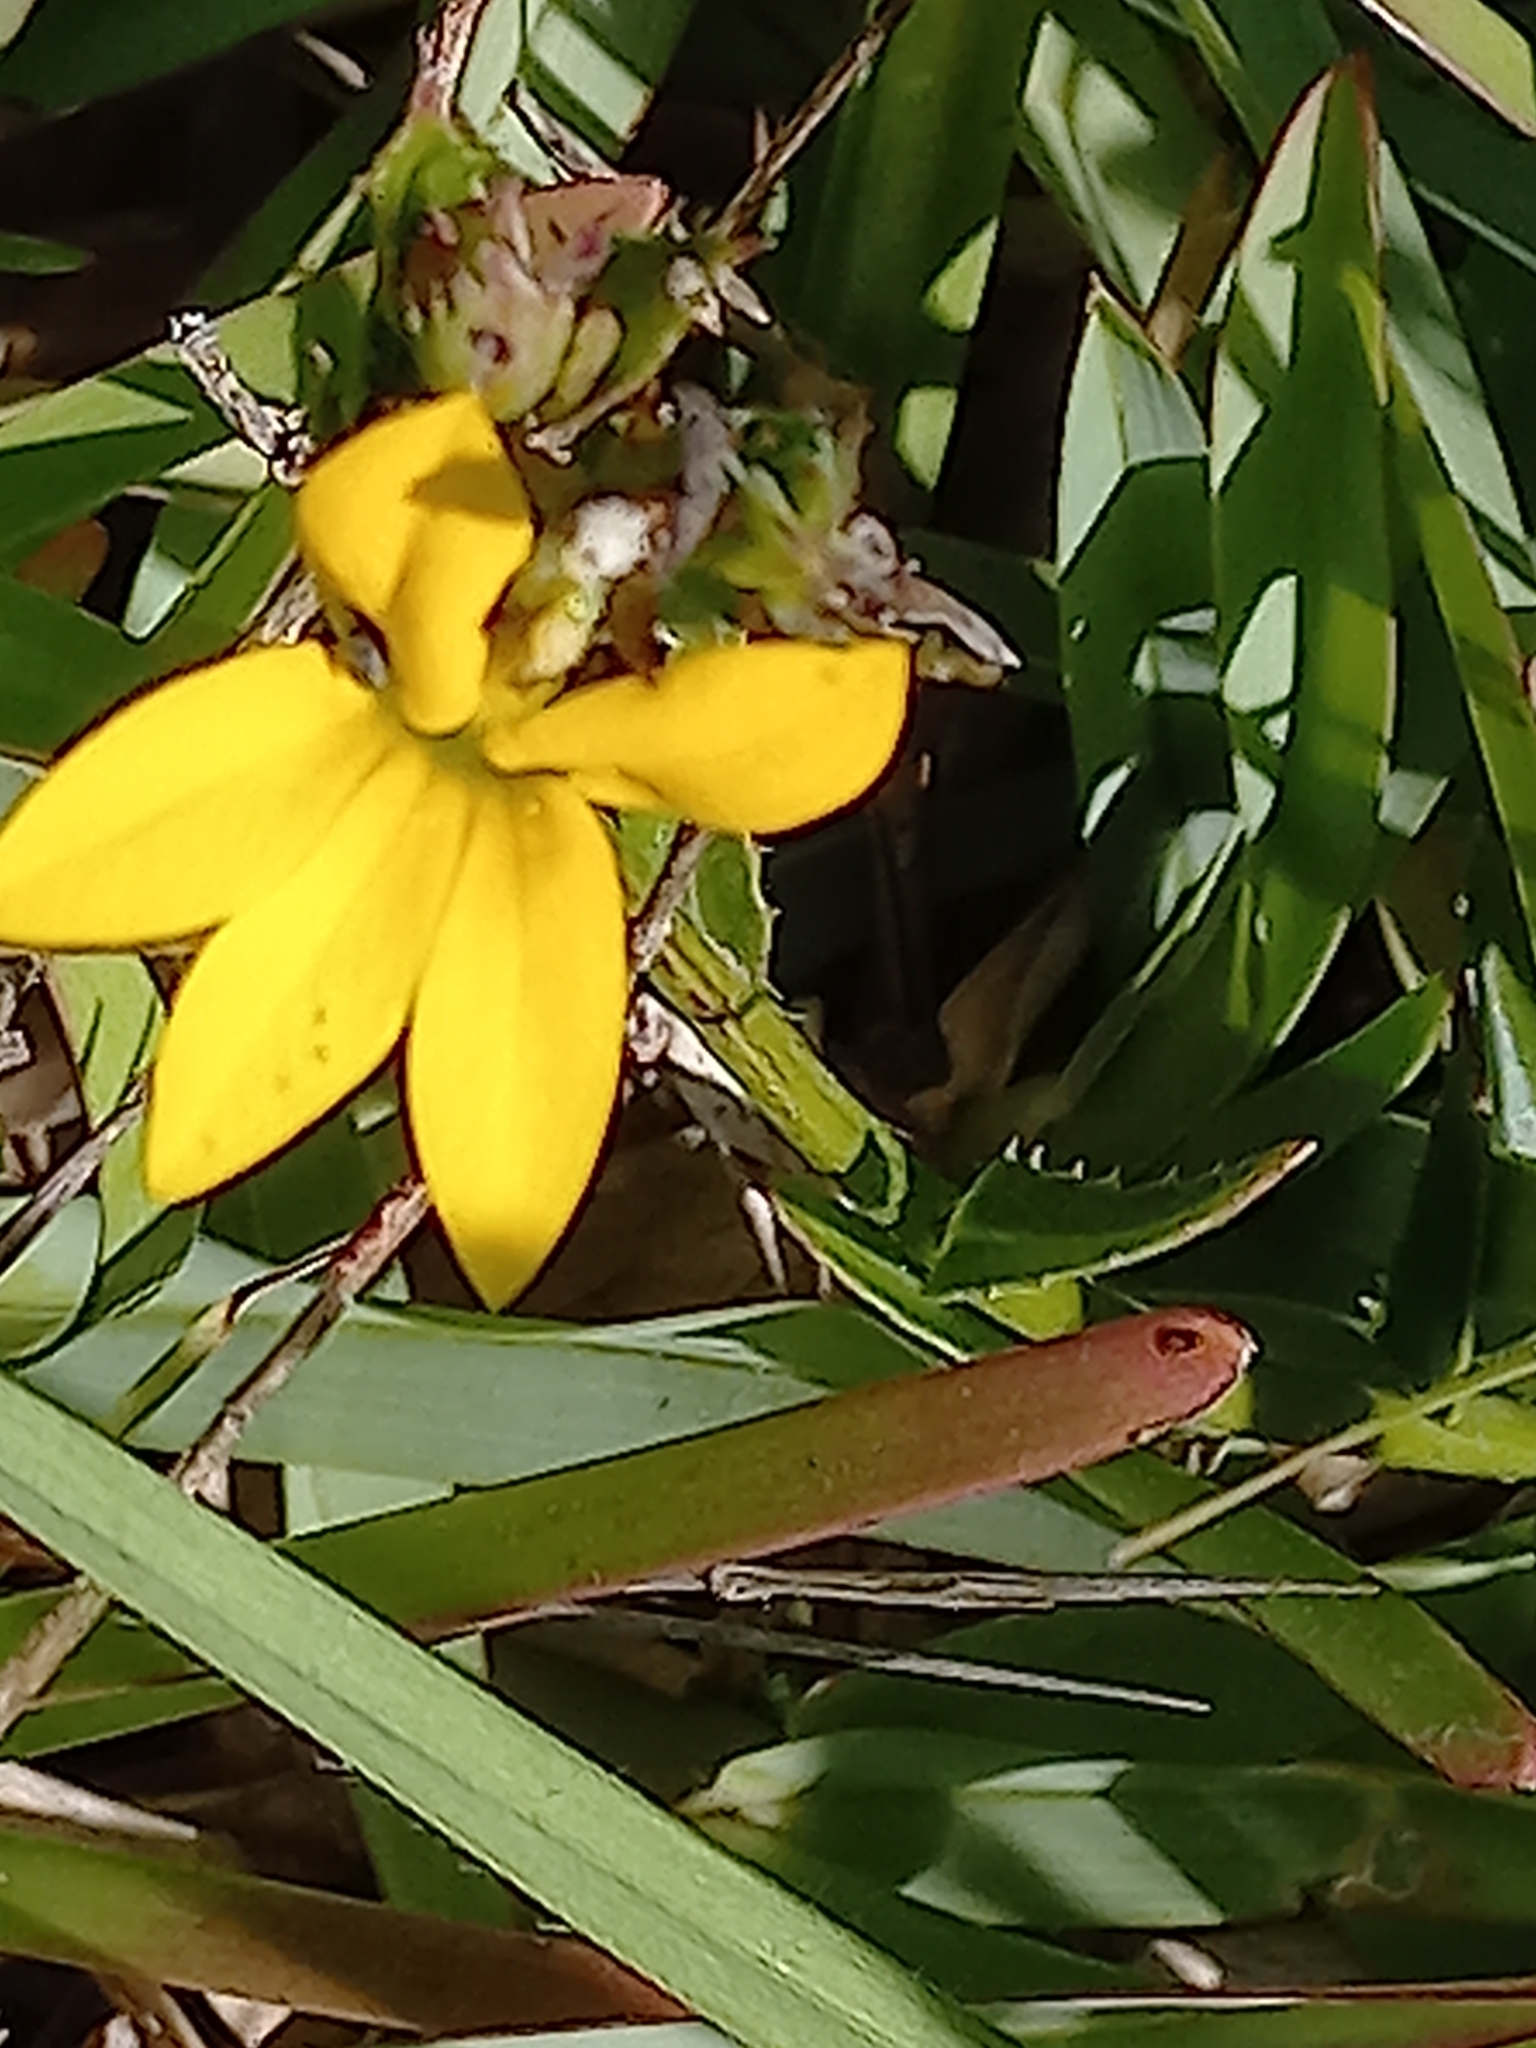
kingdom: Plantae
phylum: Tracheophyta
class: Magnoliopsida
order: Asterales
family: Campanulaceae
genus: Monopsis
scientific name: Monopsis lutea
